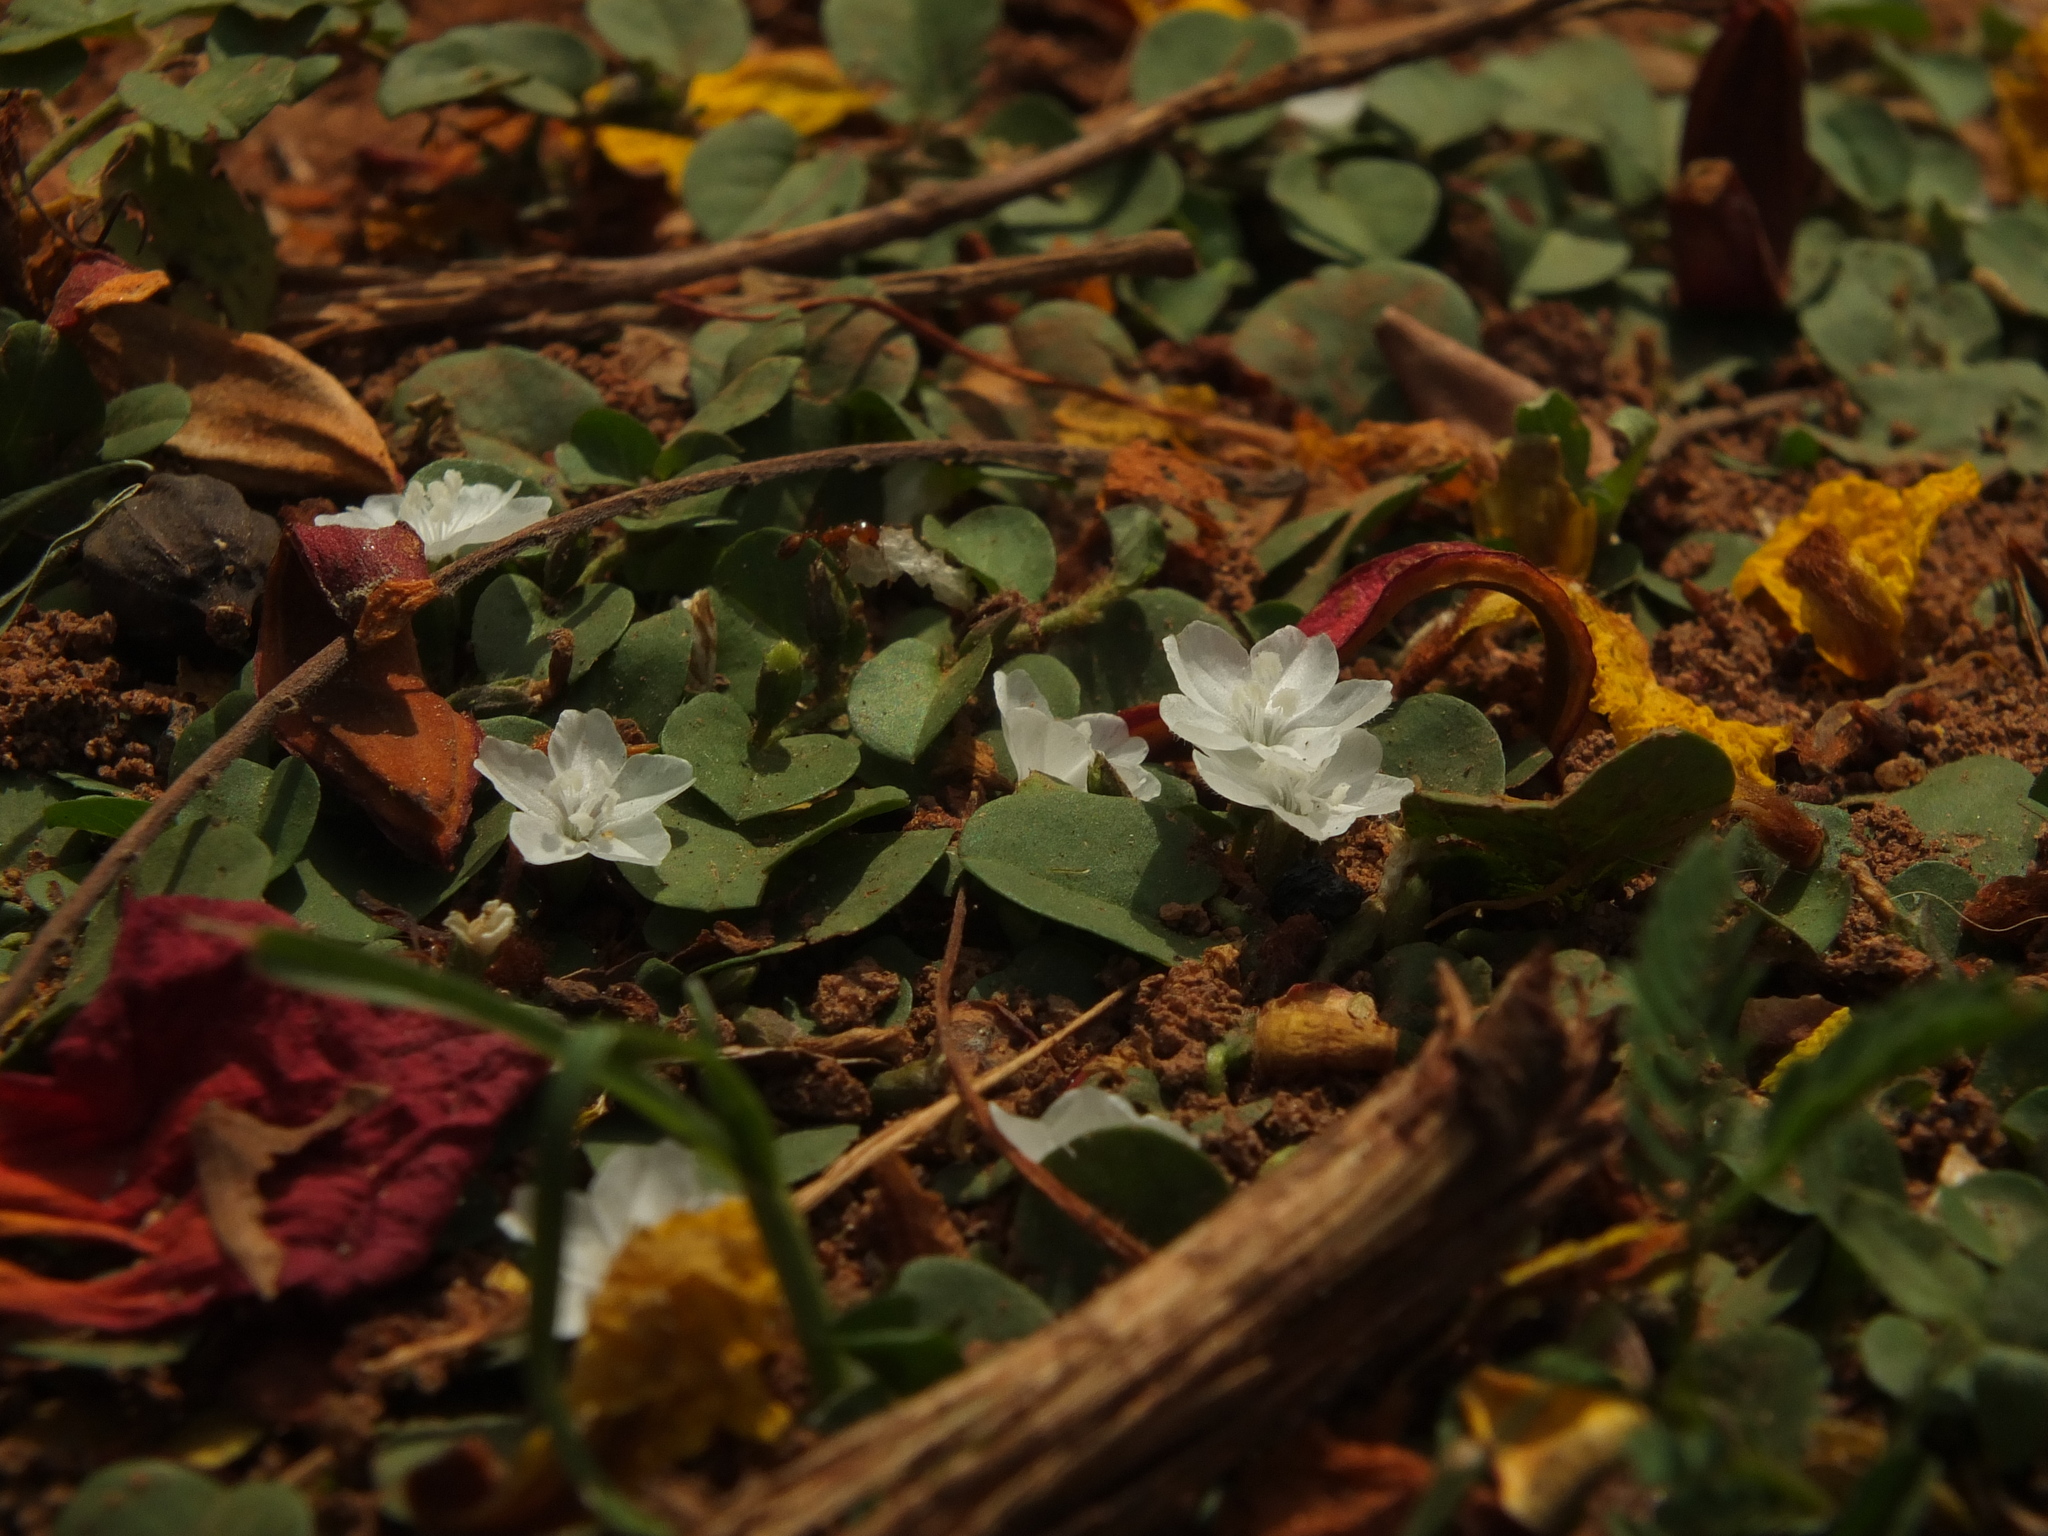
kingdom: Plantae
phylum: Tracheophyta
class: Magnoliopsida
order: Solanales
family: Convolvulaceae
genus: Evolvulus
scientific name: Evolvulus nummularius
